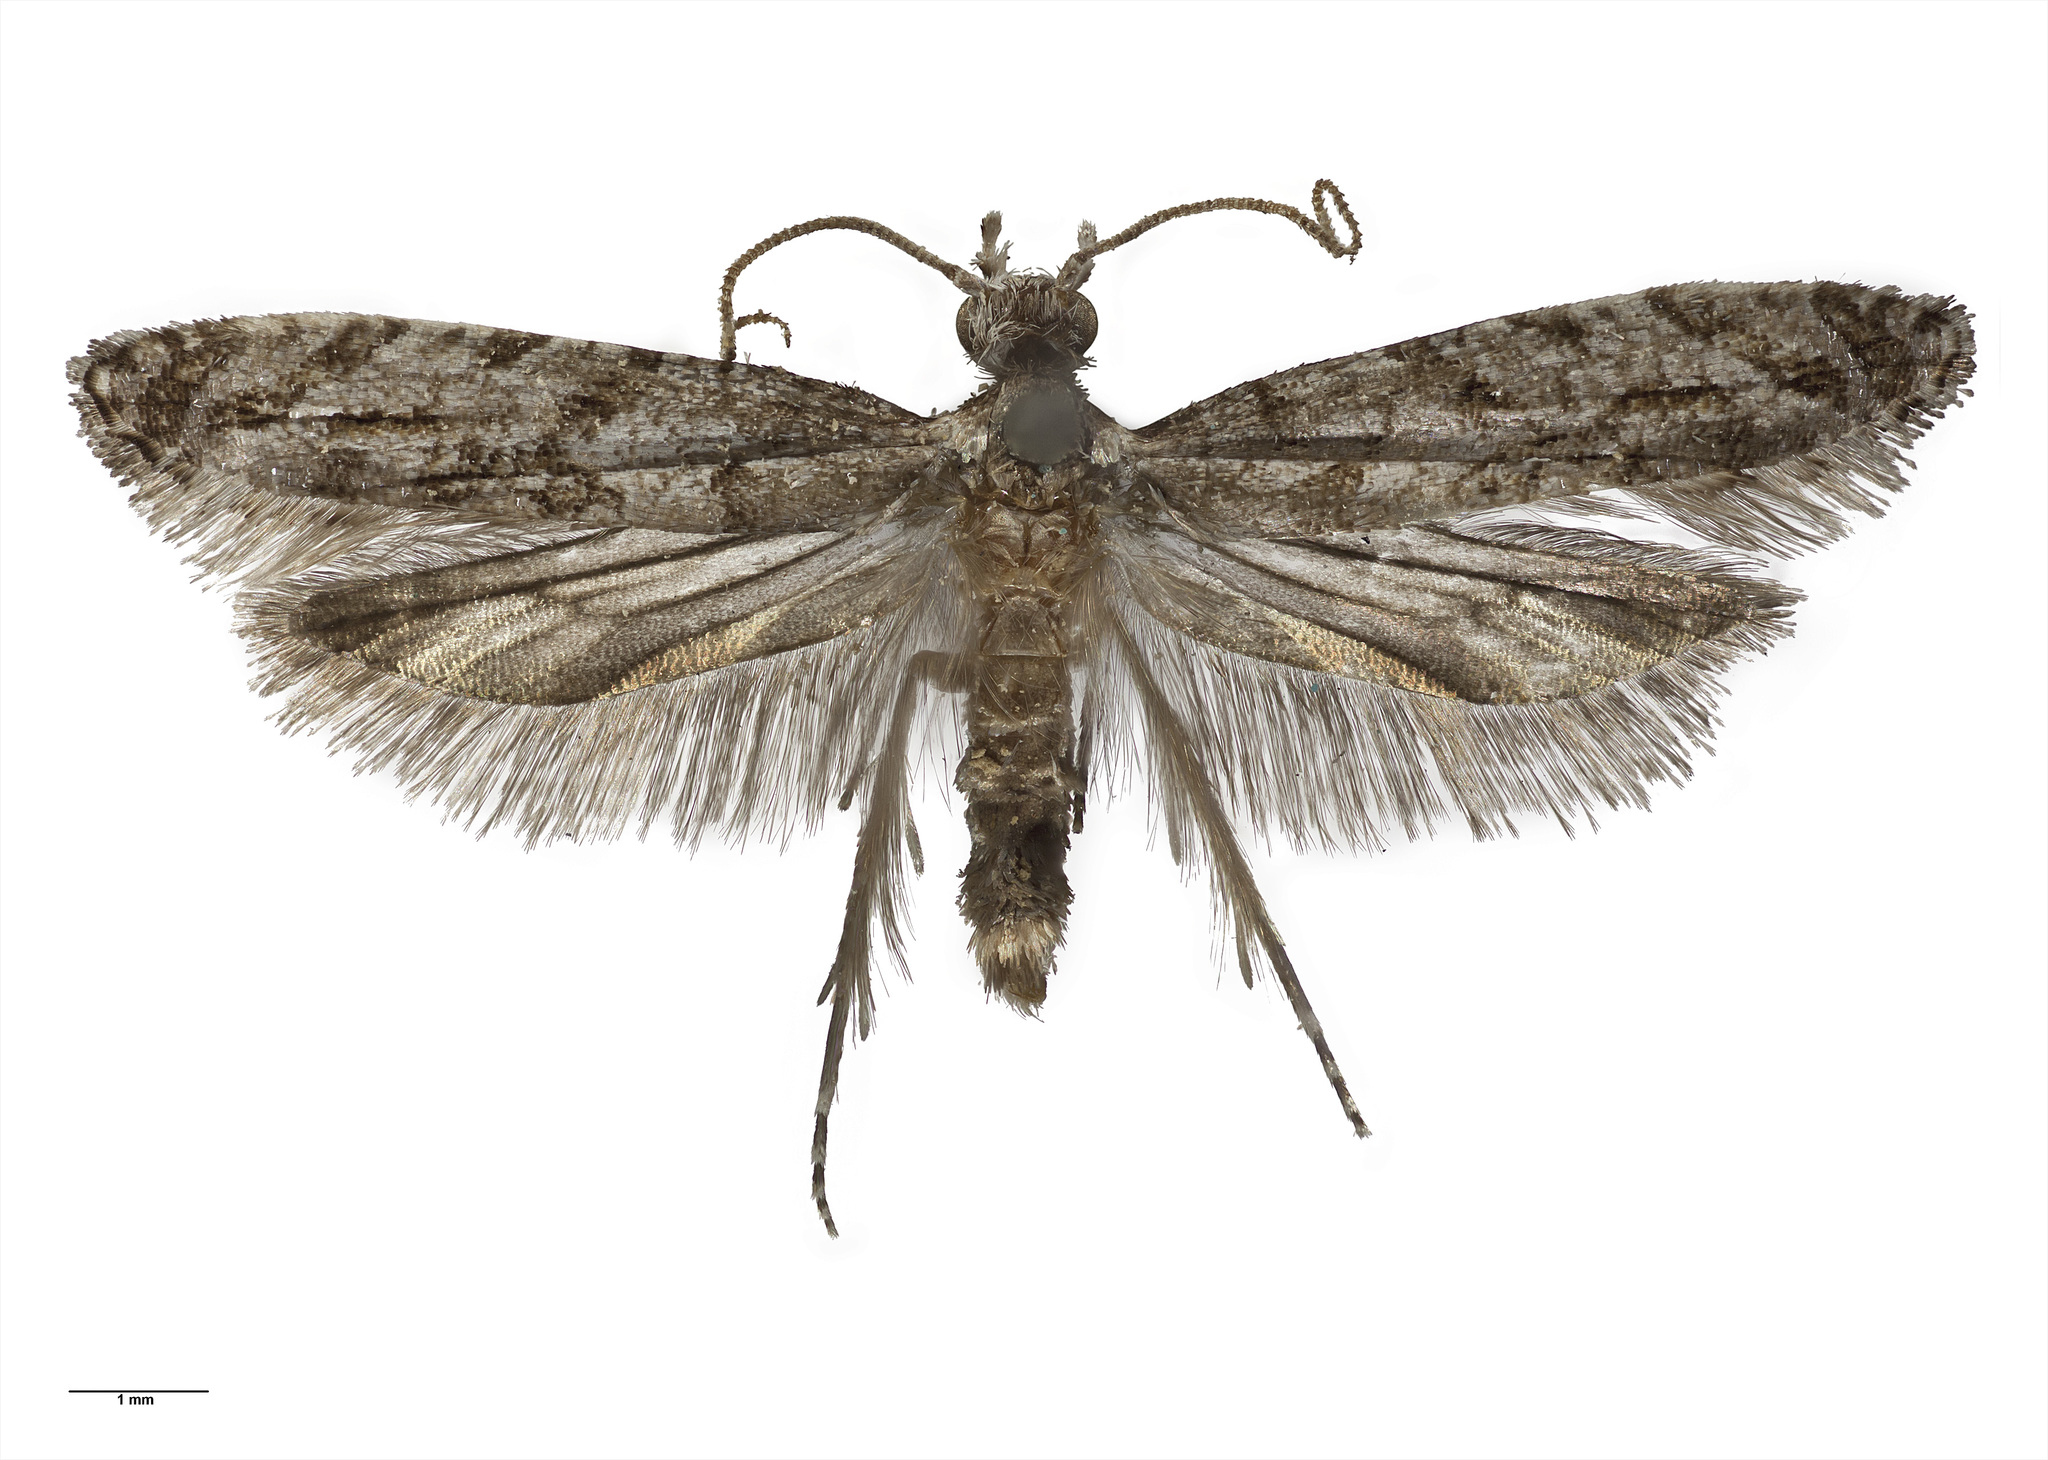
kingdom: Animalia
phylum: Arthropoda
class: Insecta
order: Lepidoptera
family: Tineidae
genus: Archyala
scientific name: Archyala paraglypta
